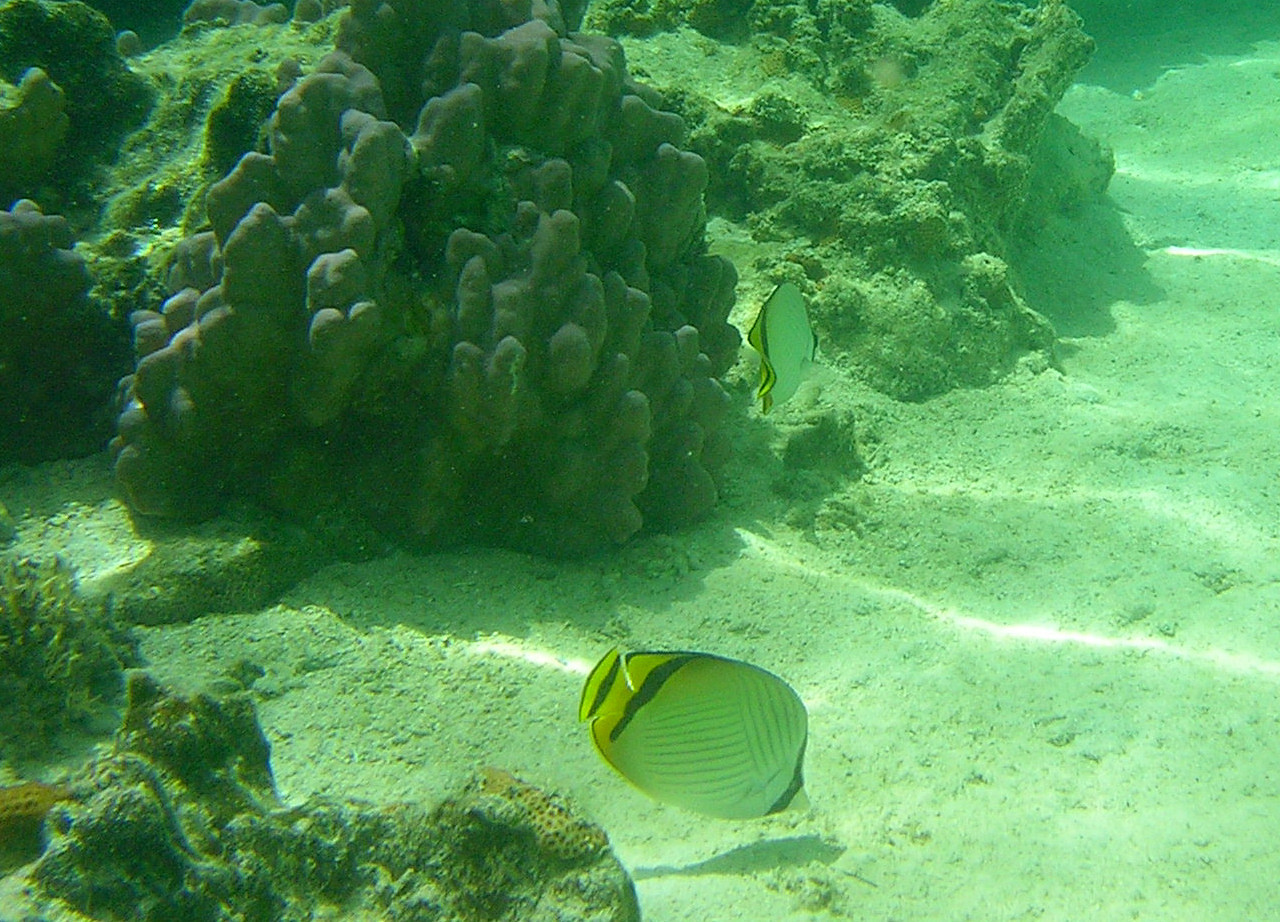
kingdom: Animalia
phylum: Chordata
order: Perciformes
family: Chaetodontidae
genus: Chaetodon
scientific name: Chaetodon vagabundus
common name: Vagabond butterflyfish
